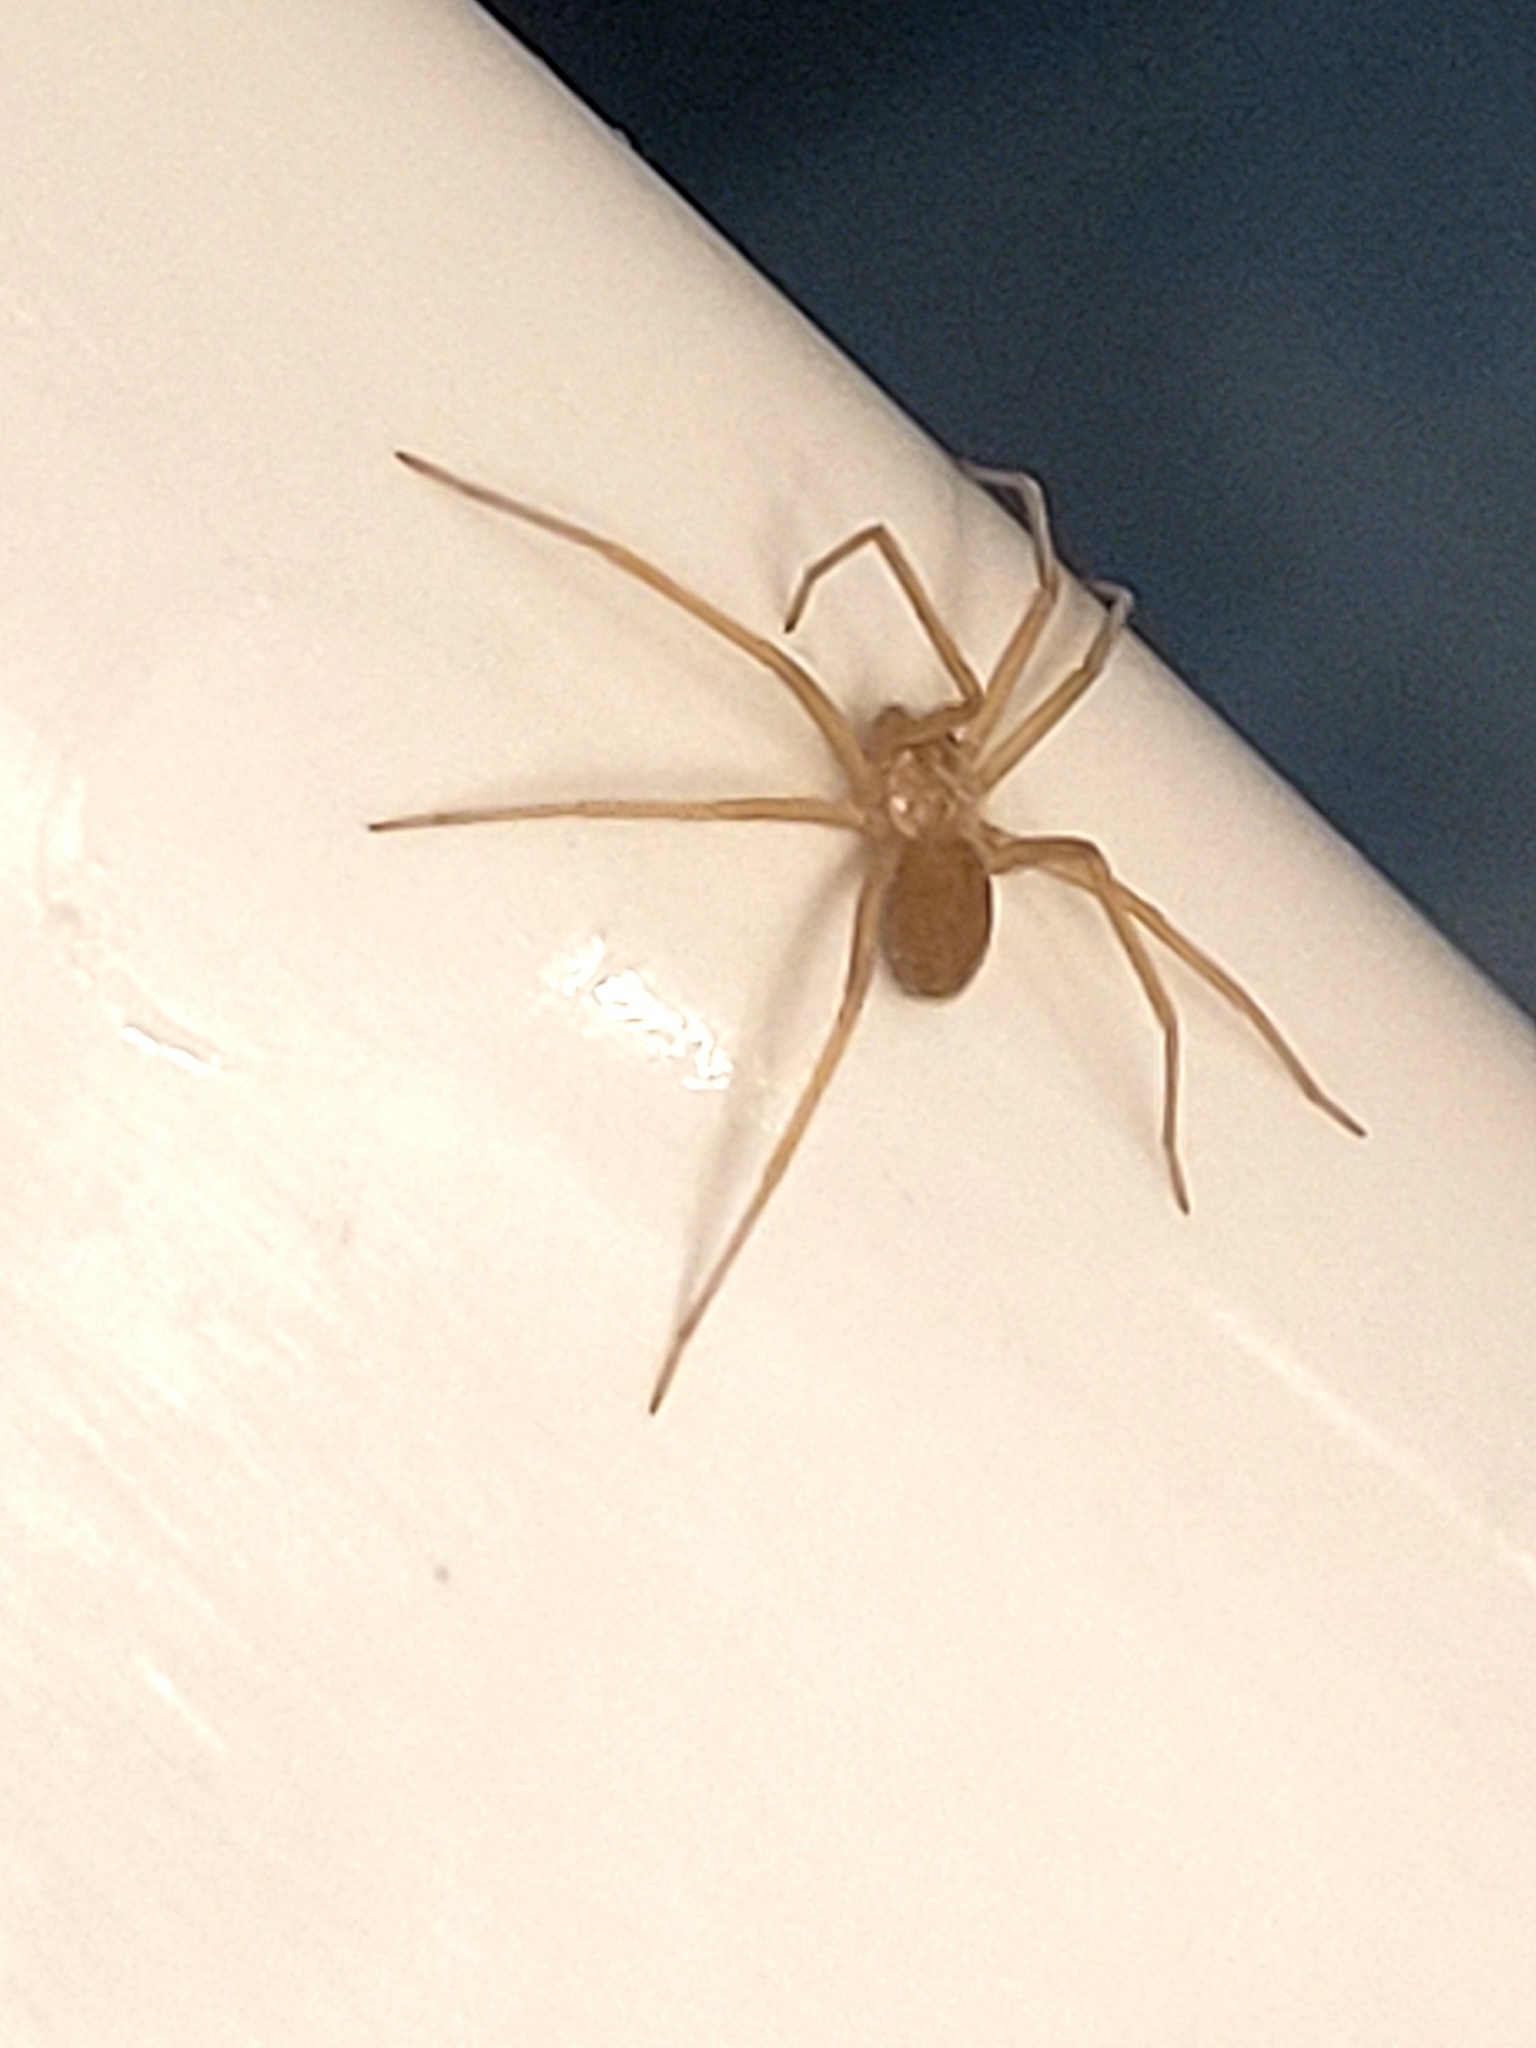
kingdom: Animalia
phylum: Arthropoda
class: Arachnida
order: Araneae
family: Sicariidae
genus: Loxosceles
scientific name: Loxosceles rufescens
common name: Mediterranean recluse spider
